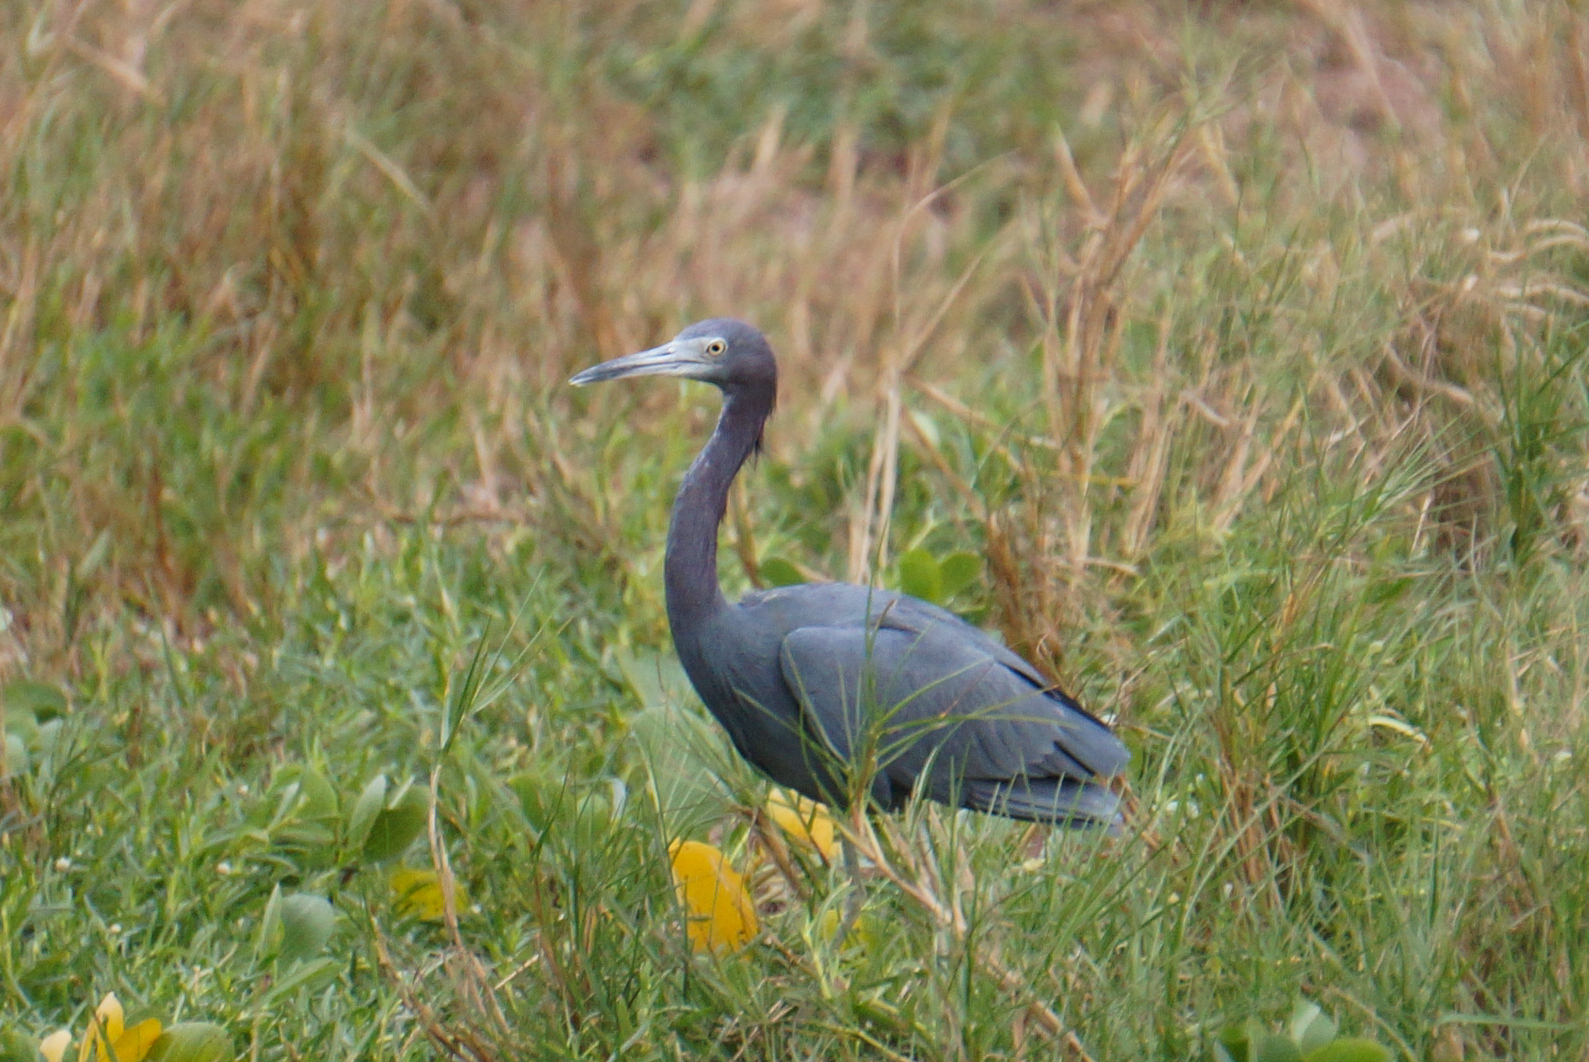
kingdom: Animalia
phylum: Chordata
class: Aves
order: Pelecaniformes
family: Ardeidae
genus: Egretta
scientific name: Egretta caerulea
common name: Little blue heron
